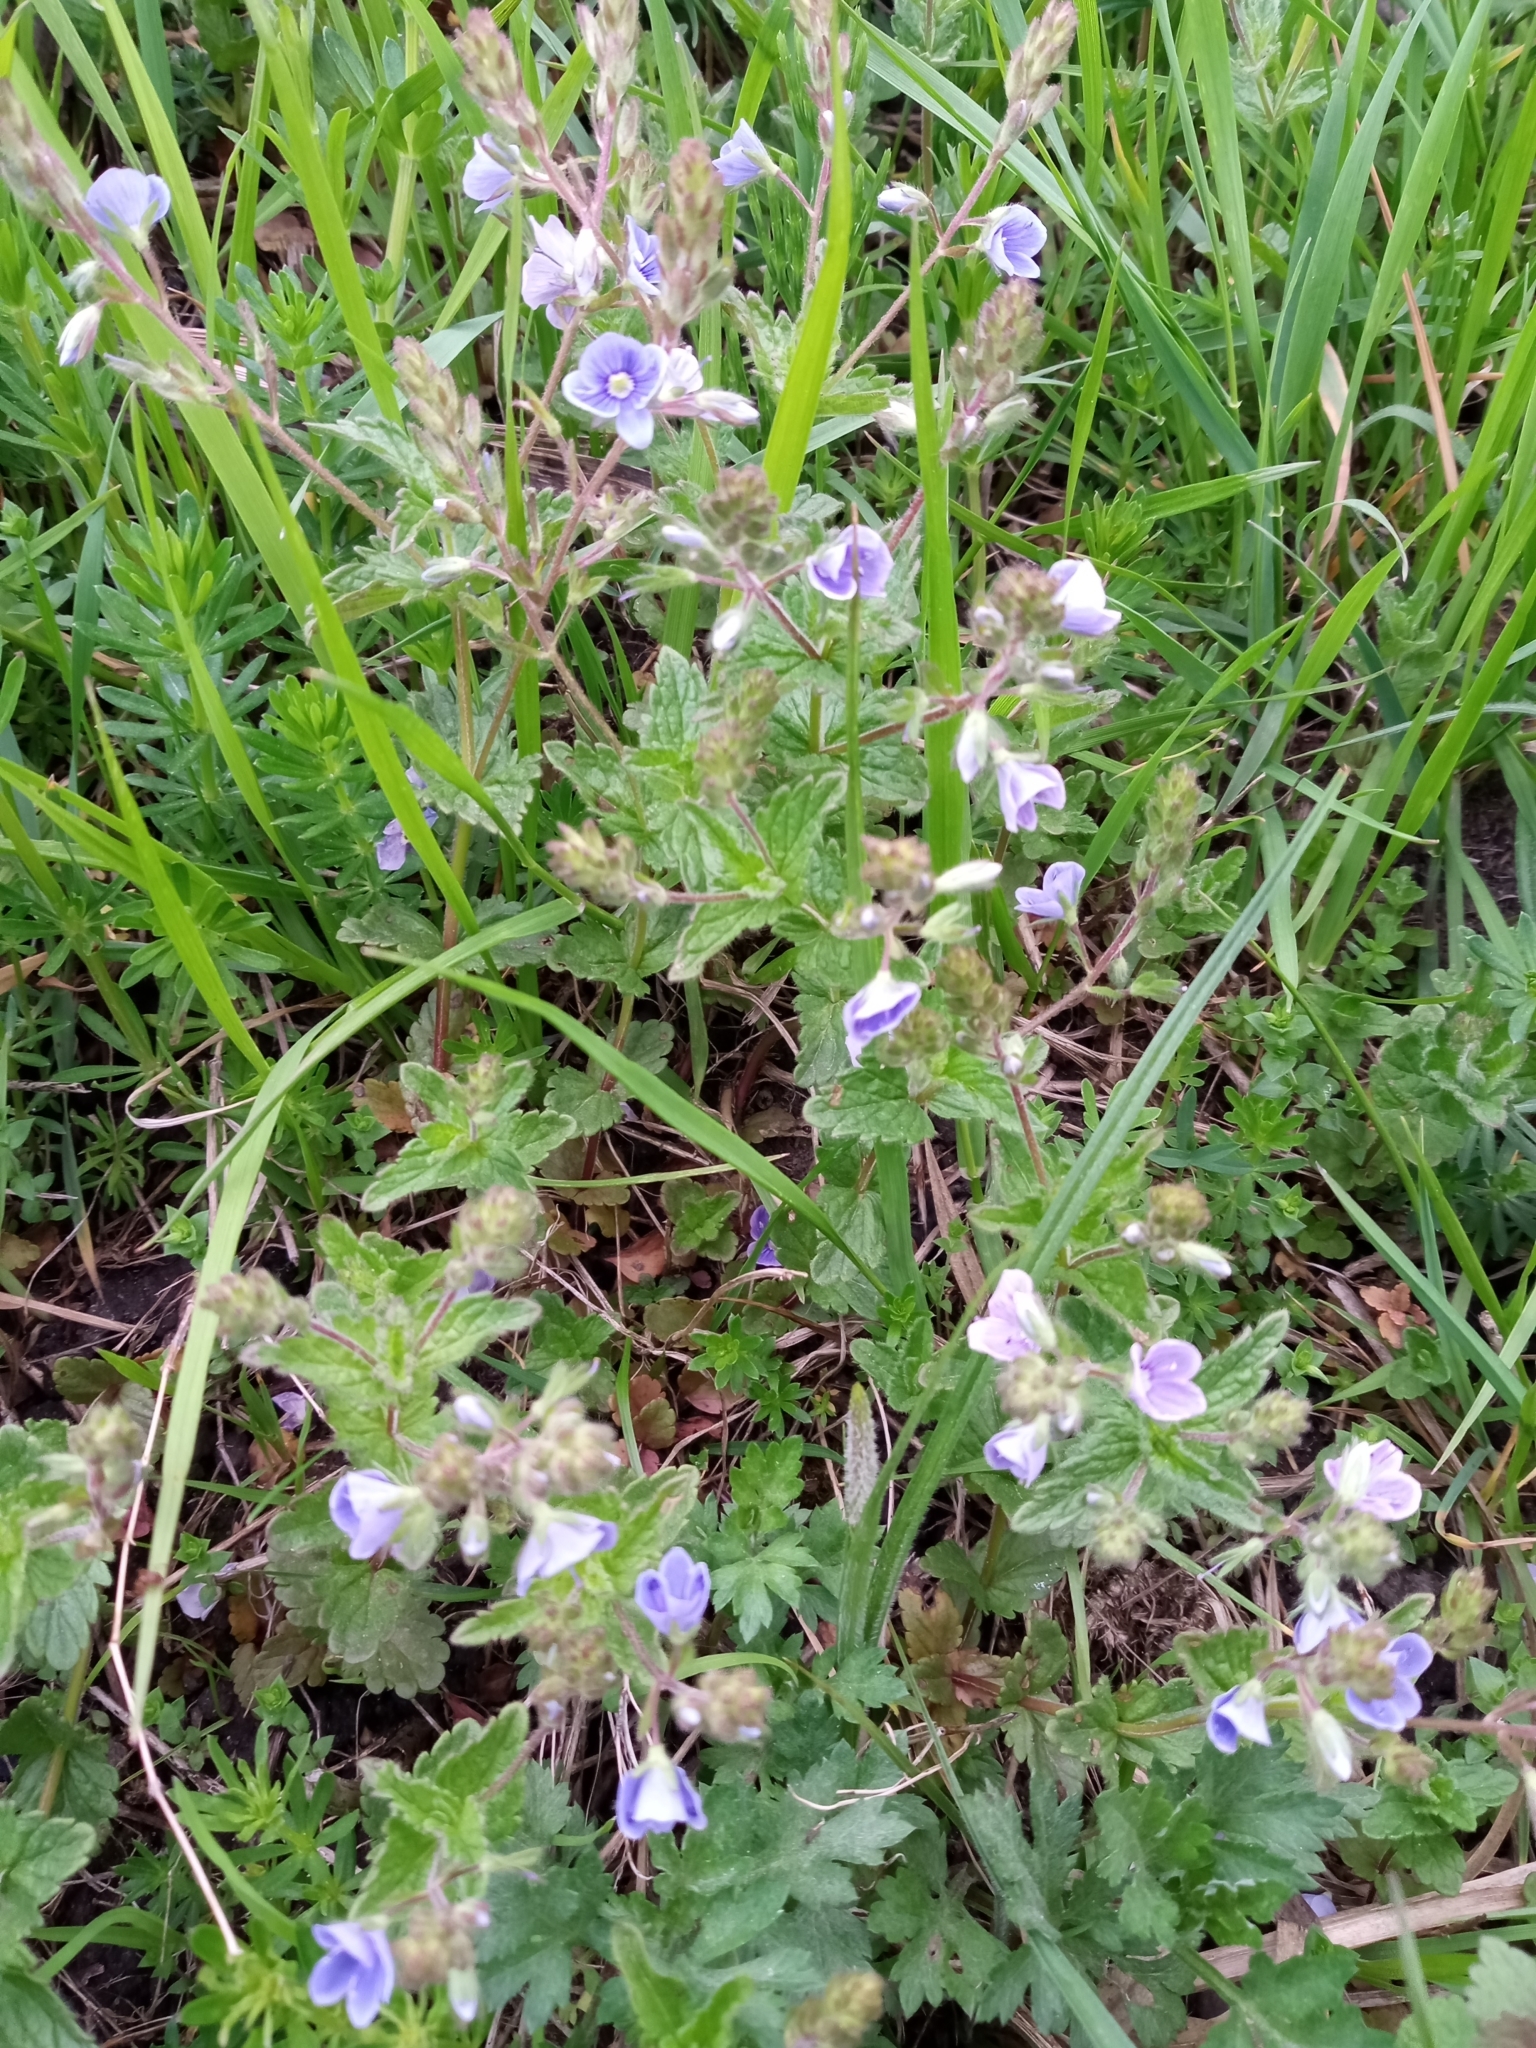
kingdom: Plantae
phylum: Tracheophyta
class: Magnoliopsida
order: Lamiales
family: Plantaginaceae
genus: Veronica
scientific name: Veronica chamaedrys
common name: Germander speedwell
